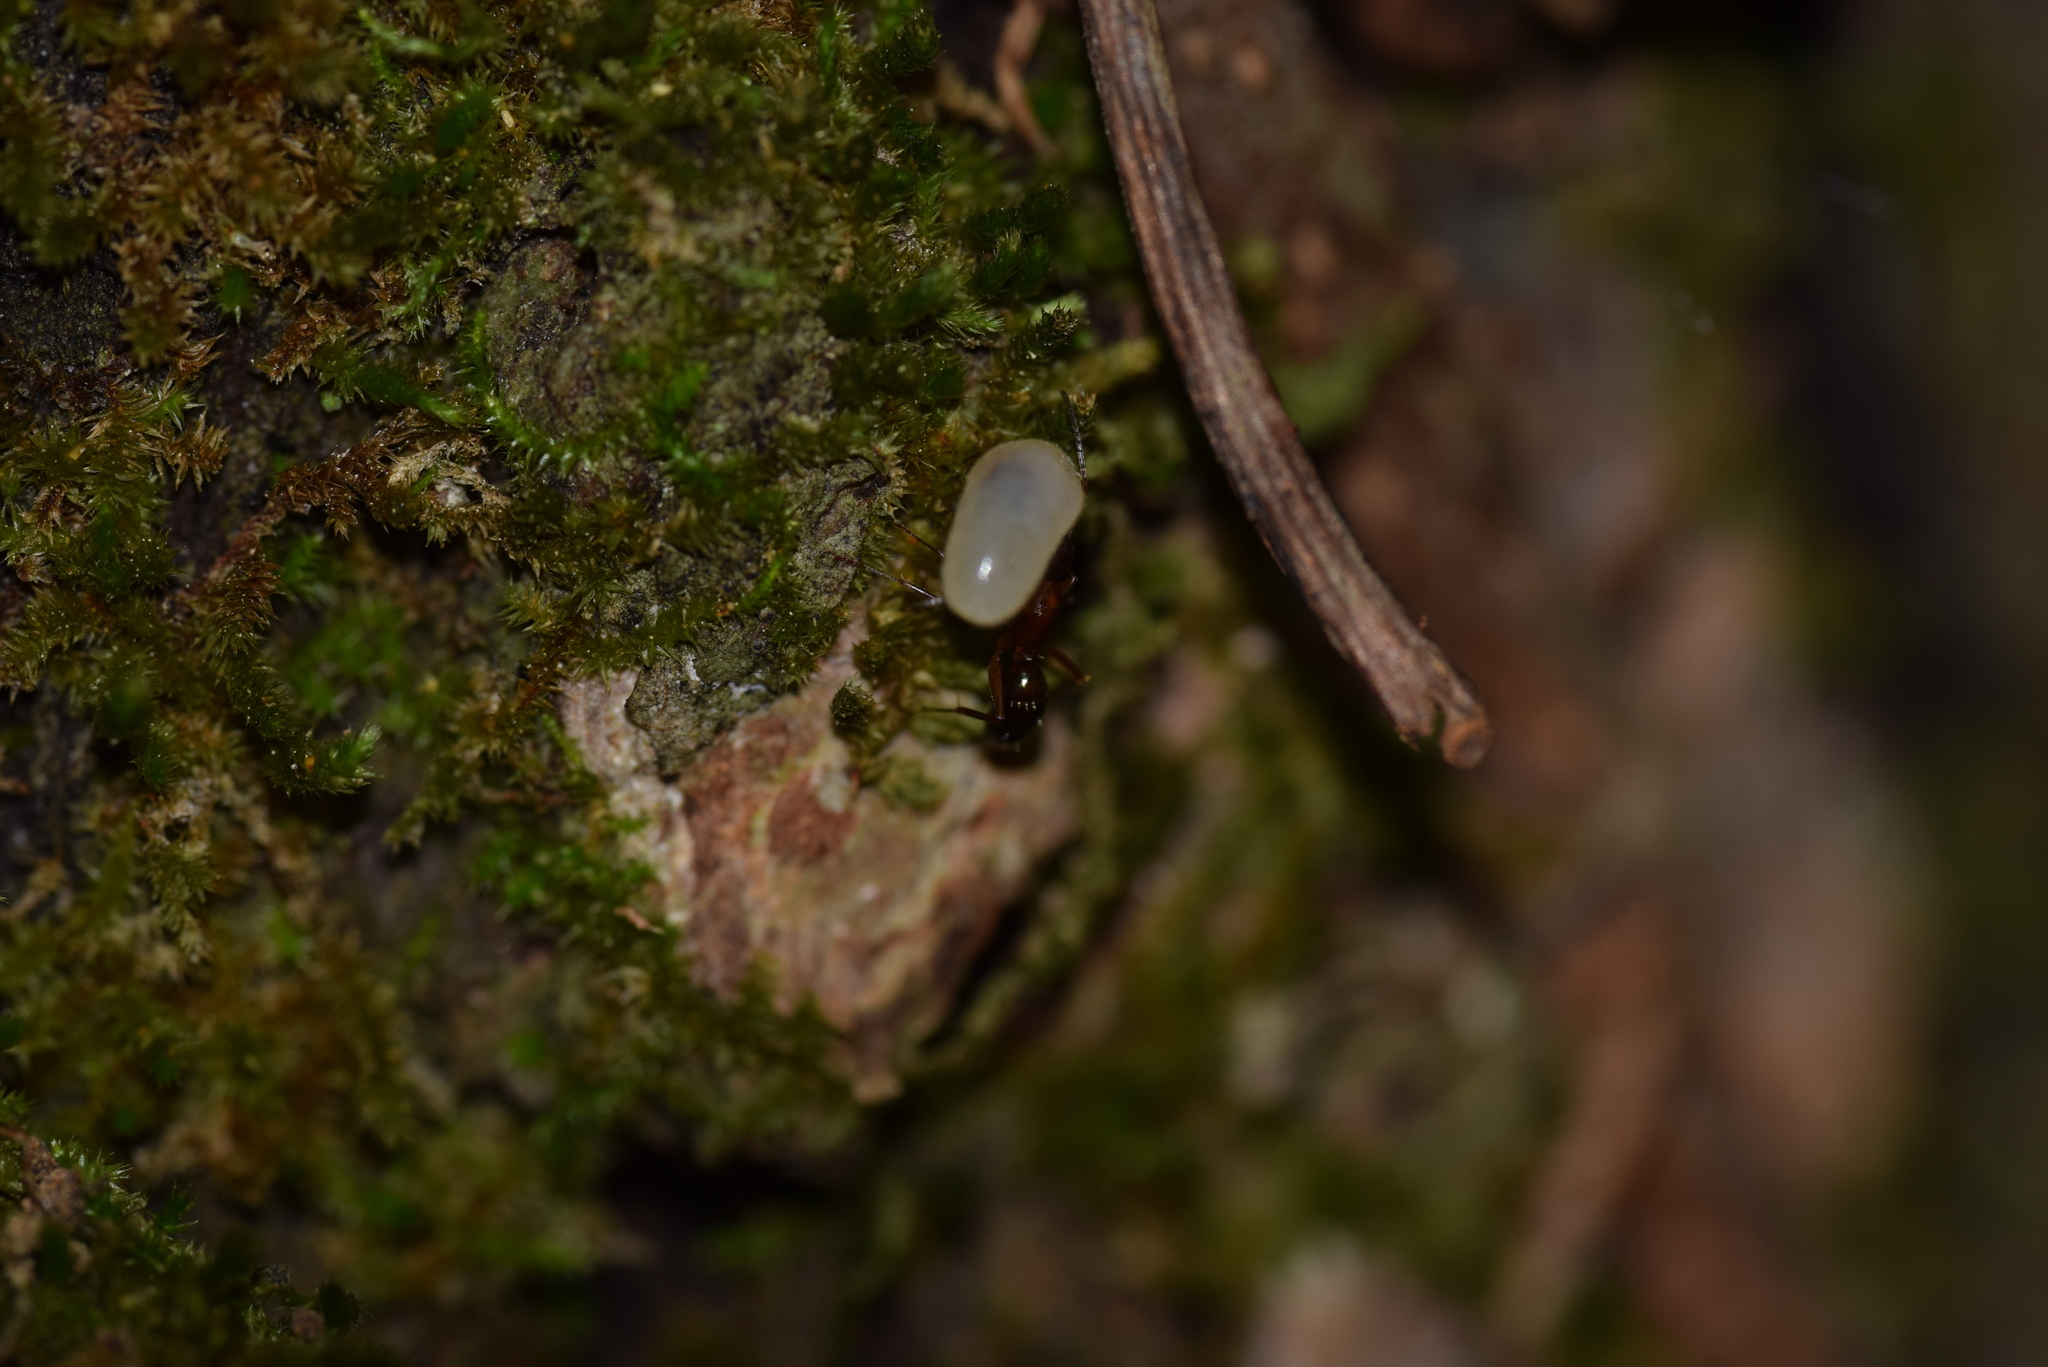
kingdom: Animalia
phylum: Arthropoda
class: Insecta
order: Hymenoptera
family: Formicidae
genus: Camponotus
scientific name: Camponotus snellingi
